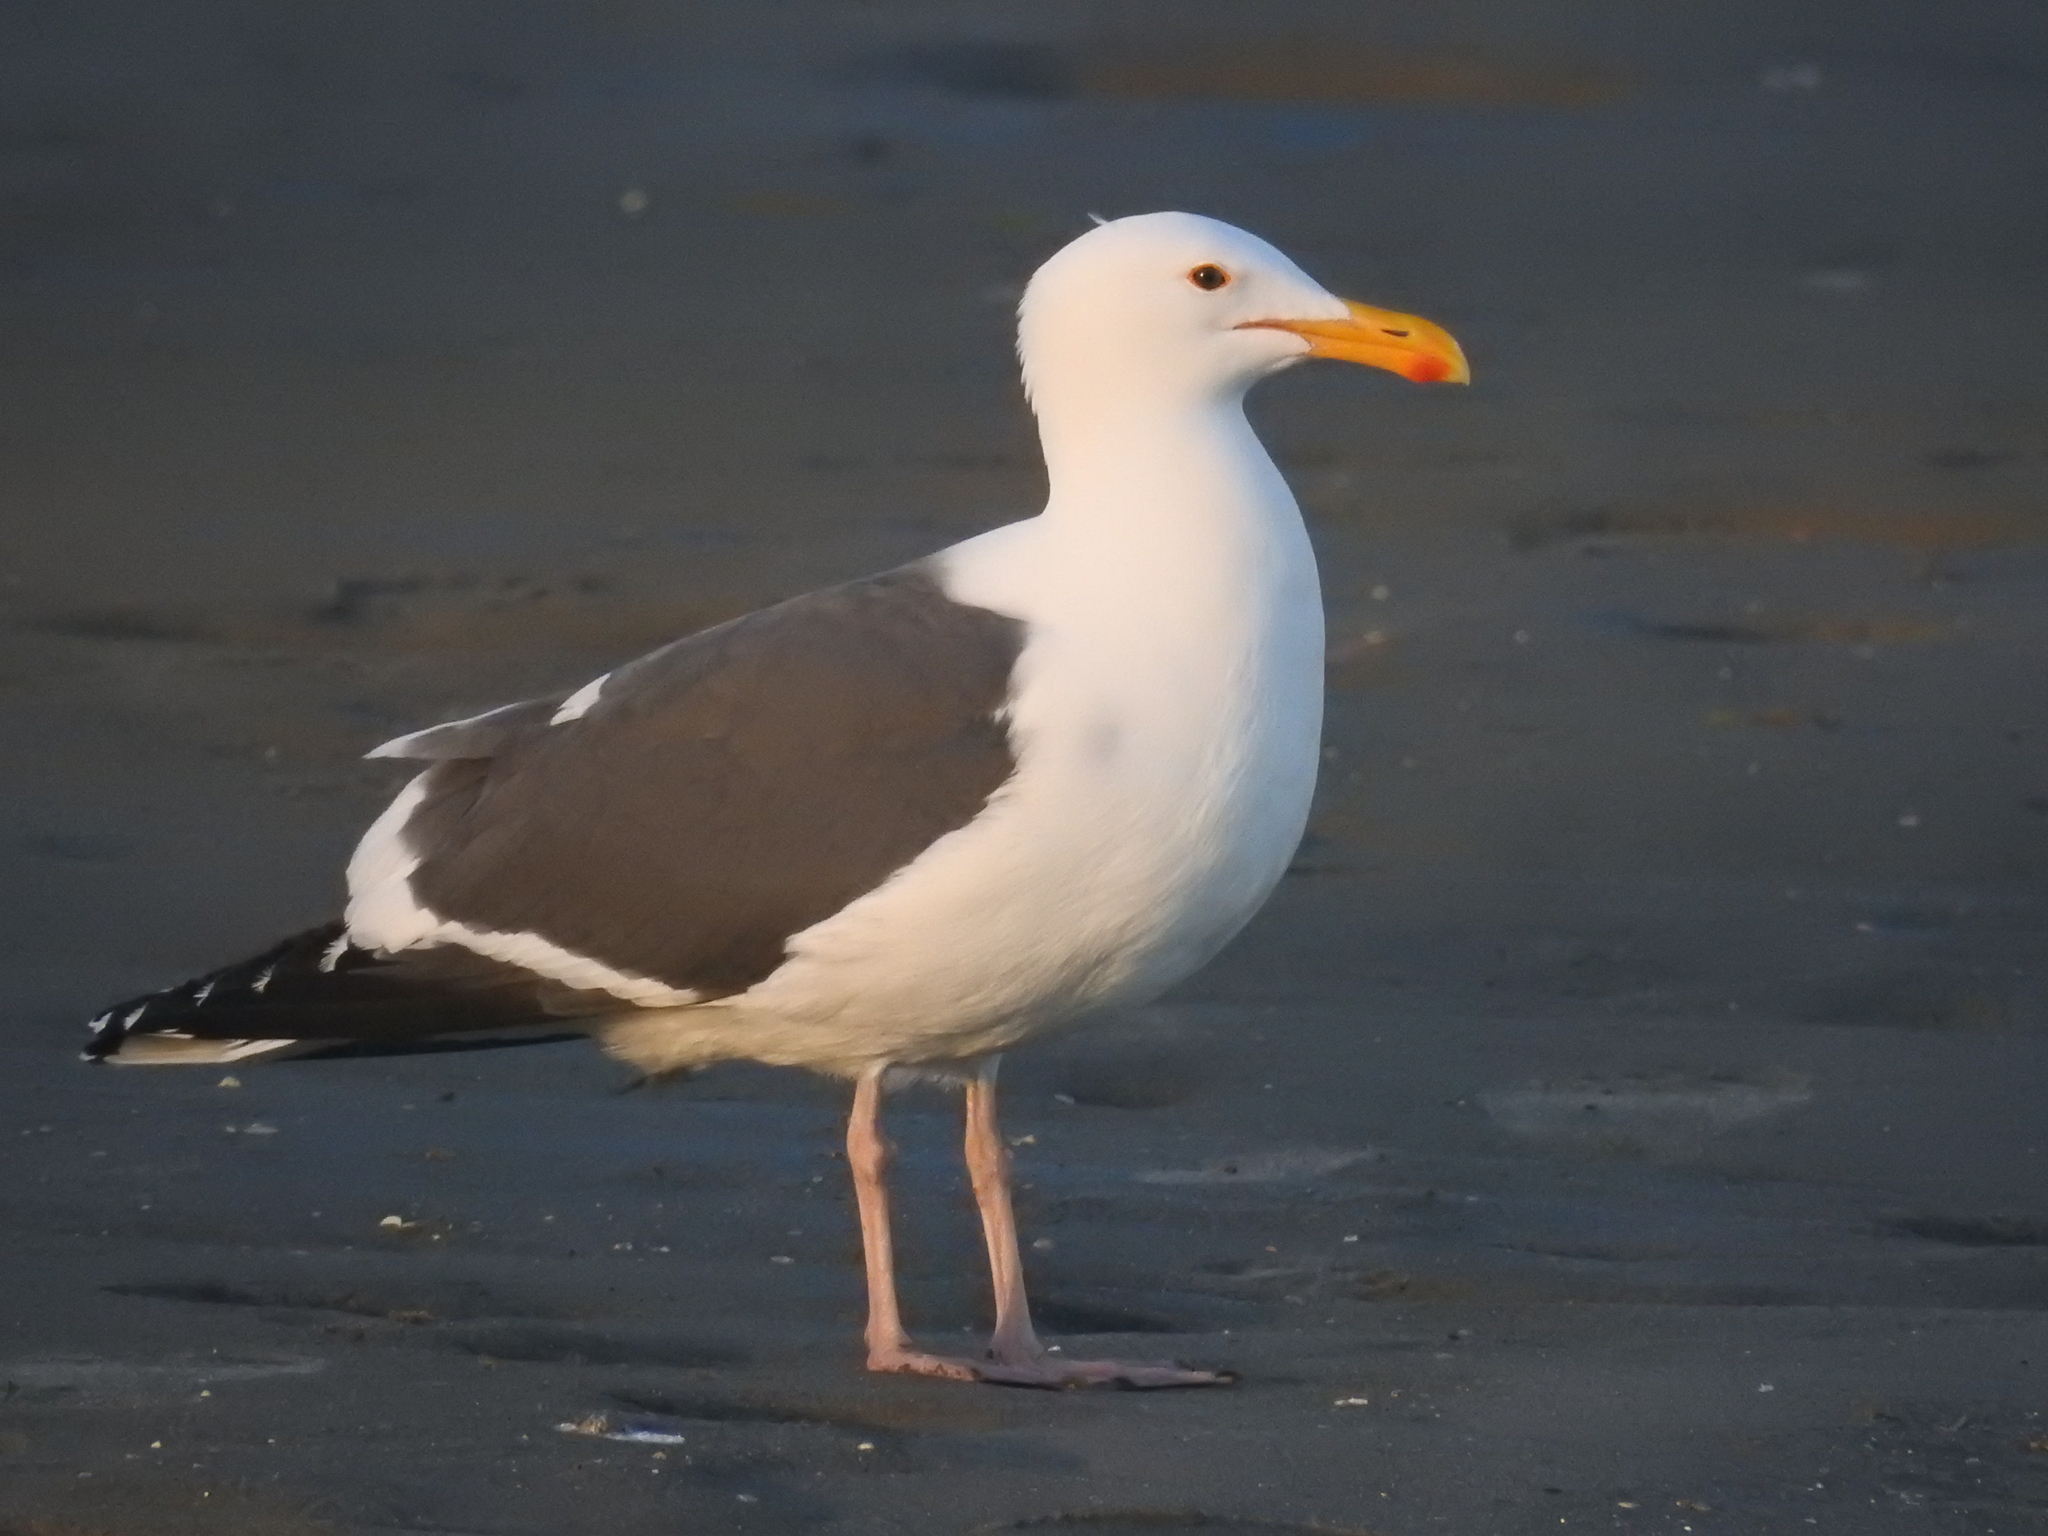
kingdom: Animalia
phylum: Chordata
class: Aves
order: Charadriiformes
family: Laridae
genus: Larus
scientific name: Larus occidentalis
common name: Western gull
